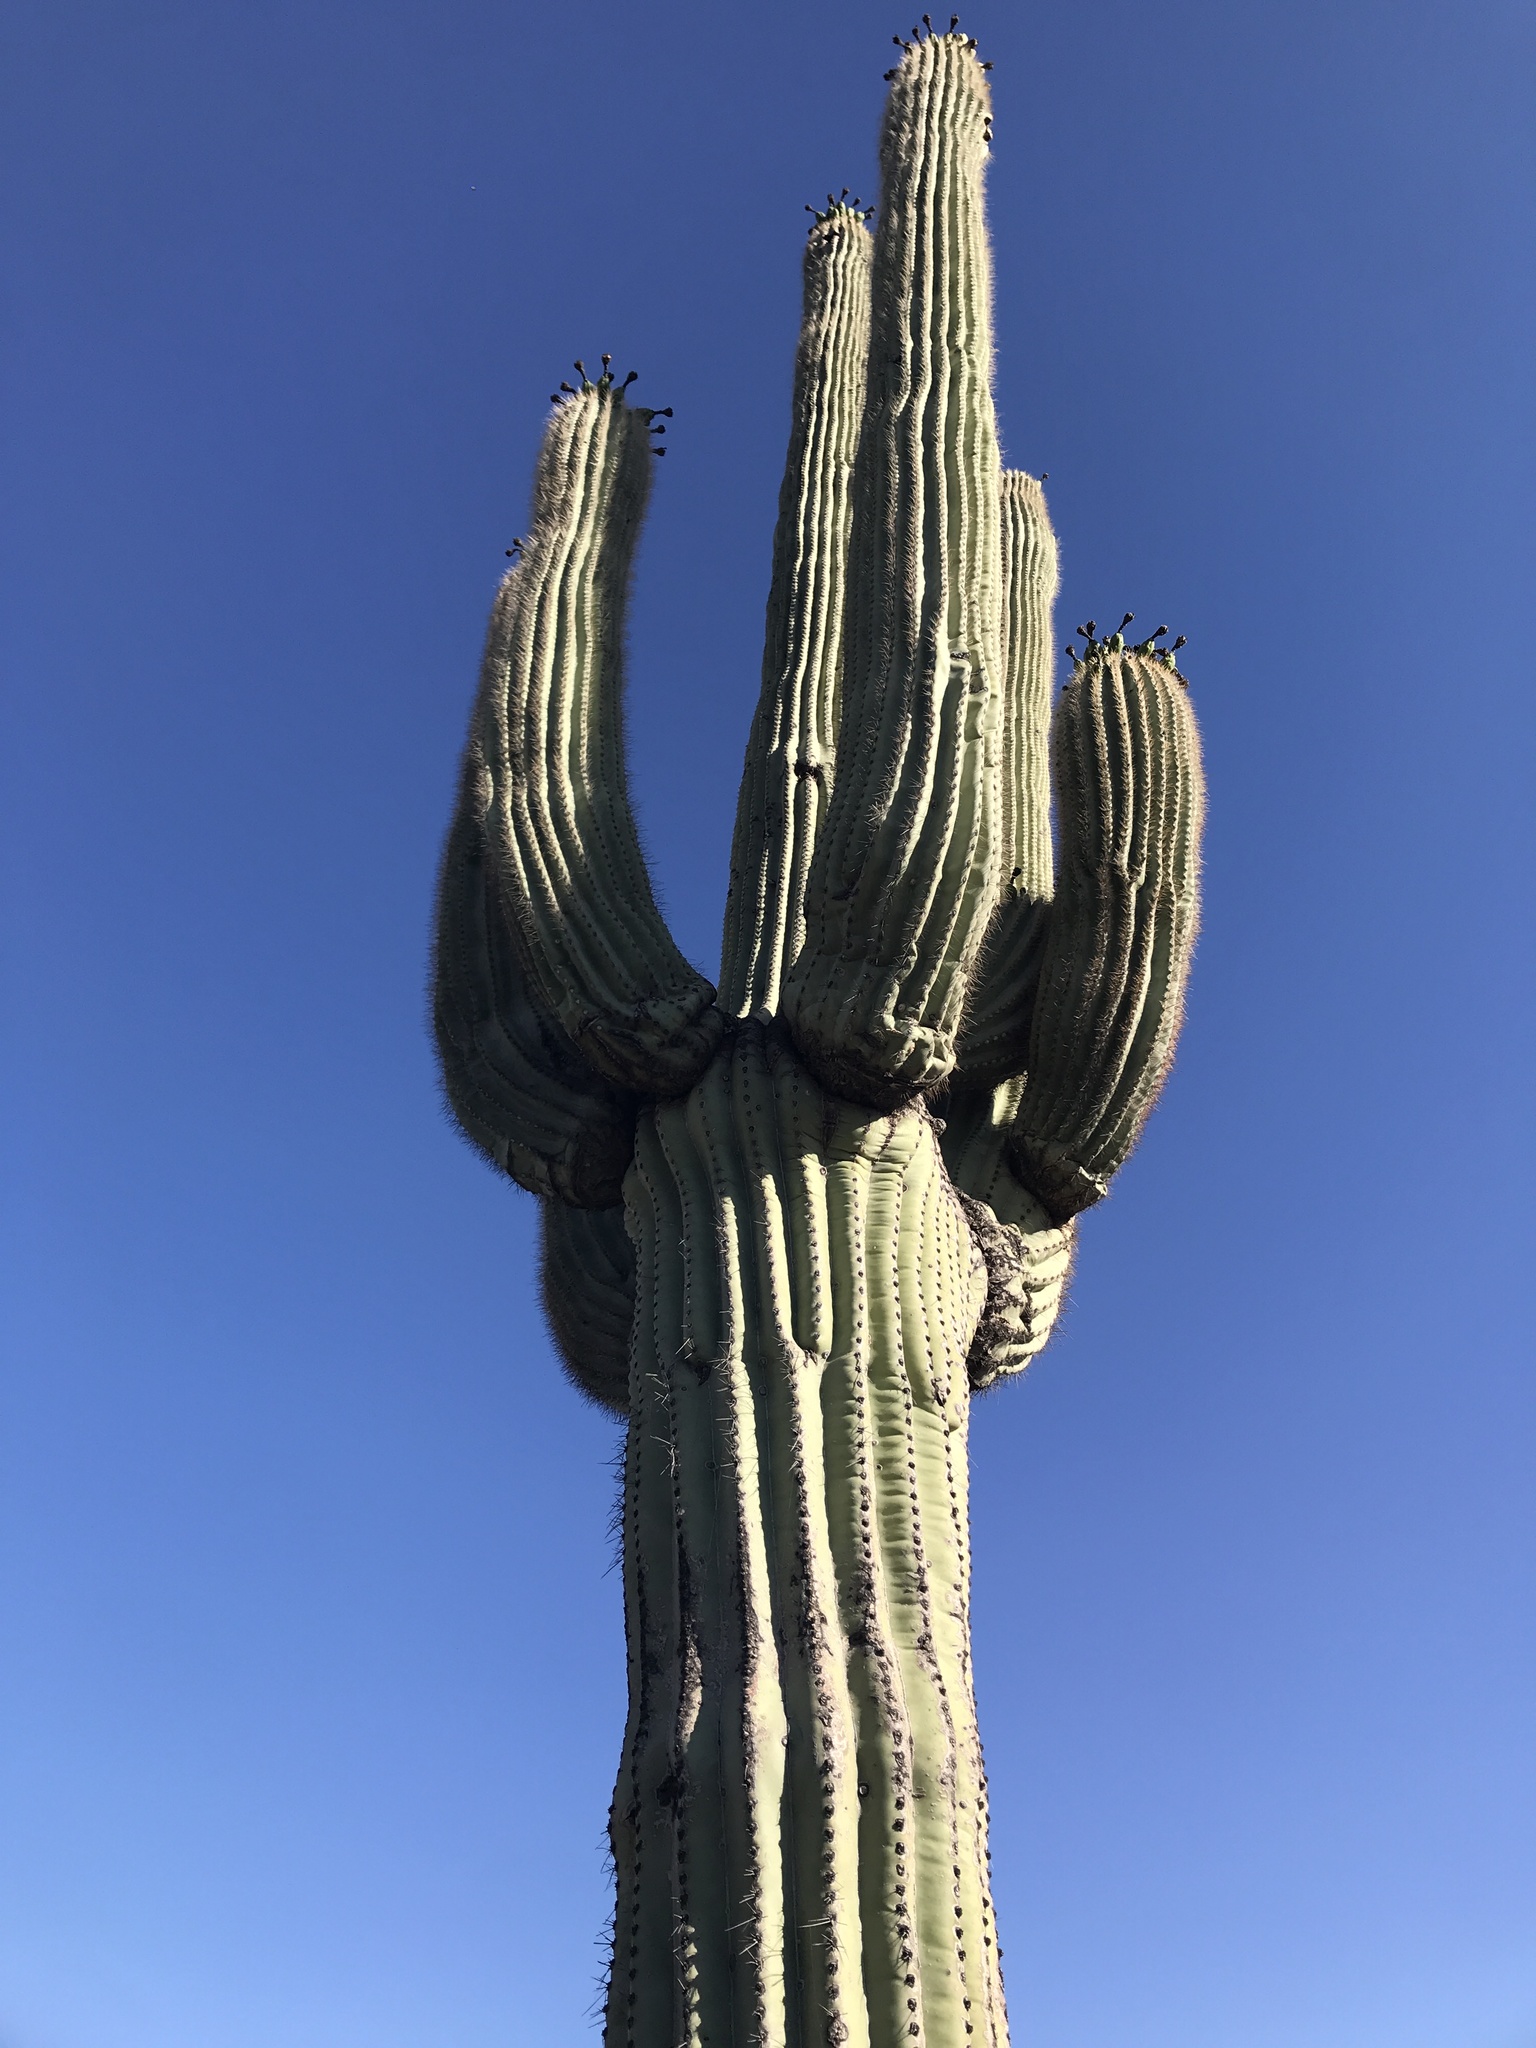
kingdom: Plantae
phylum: Tracheophyta
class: Magnoliopsida
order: Caryophyllales
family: Cactaceae
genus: Carnegiea
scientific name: Carnegiea gigantea
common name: Saguaro
